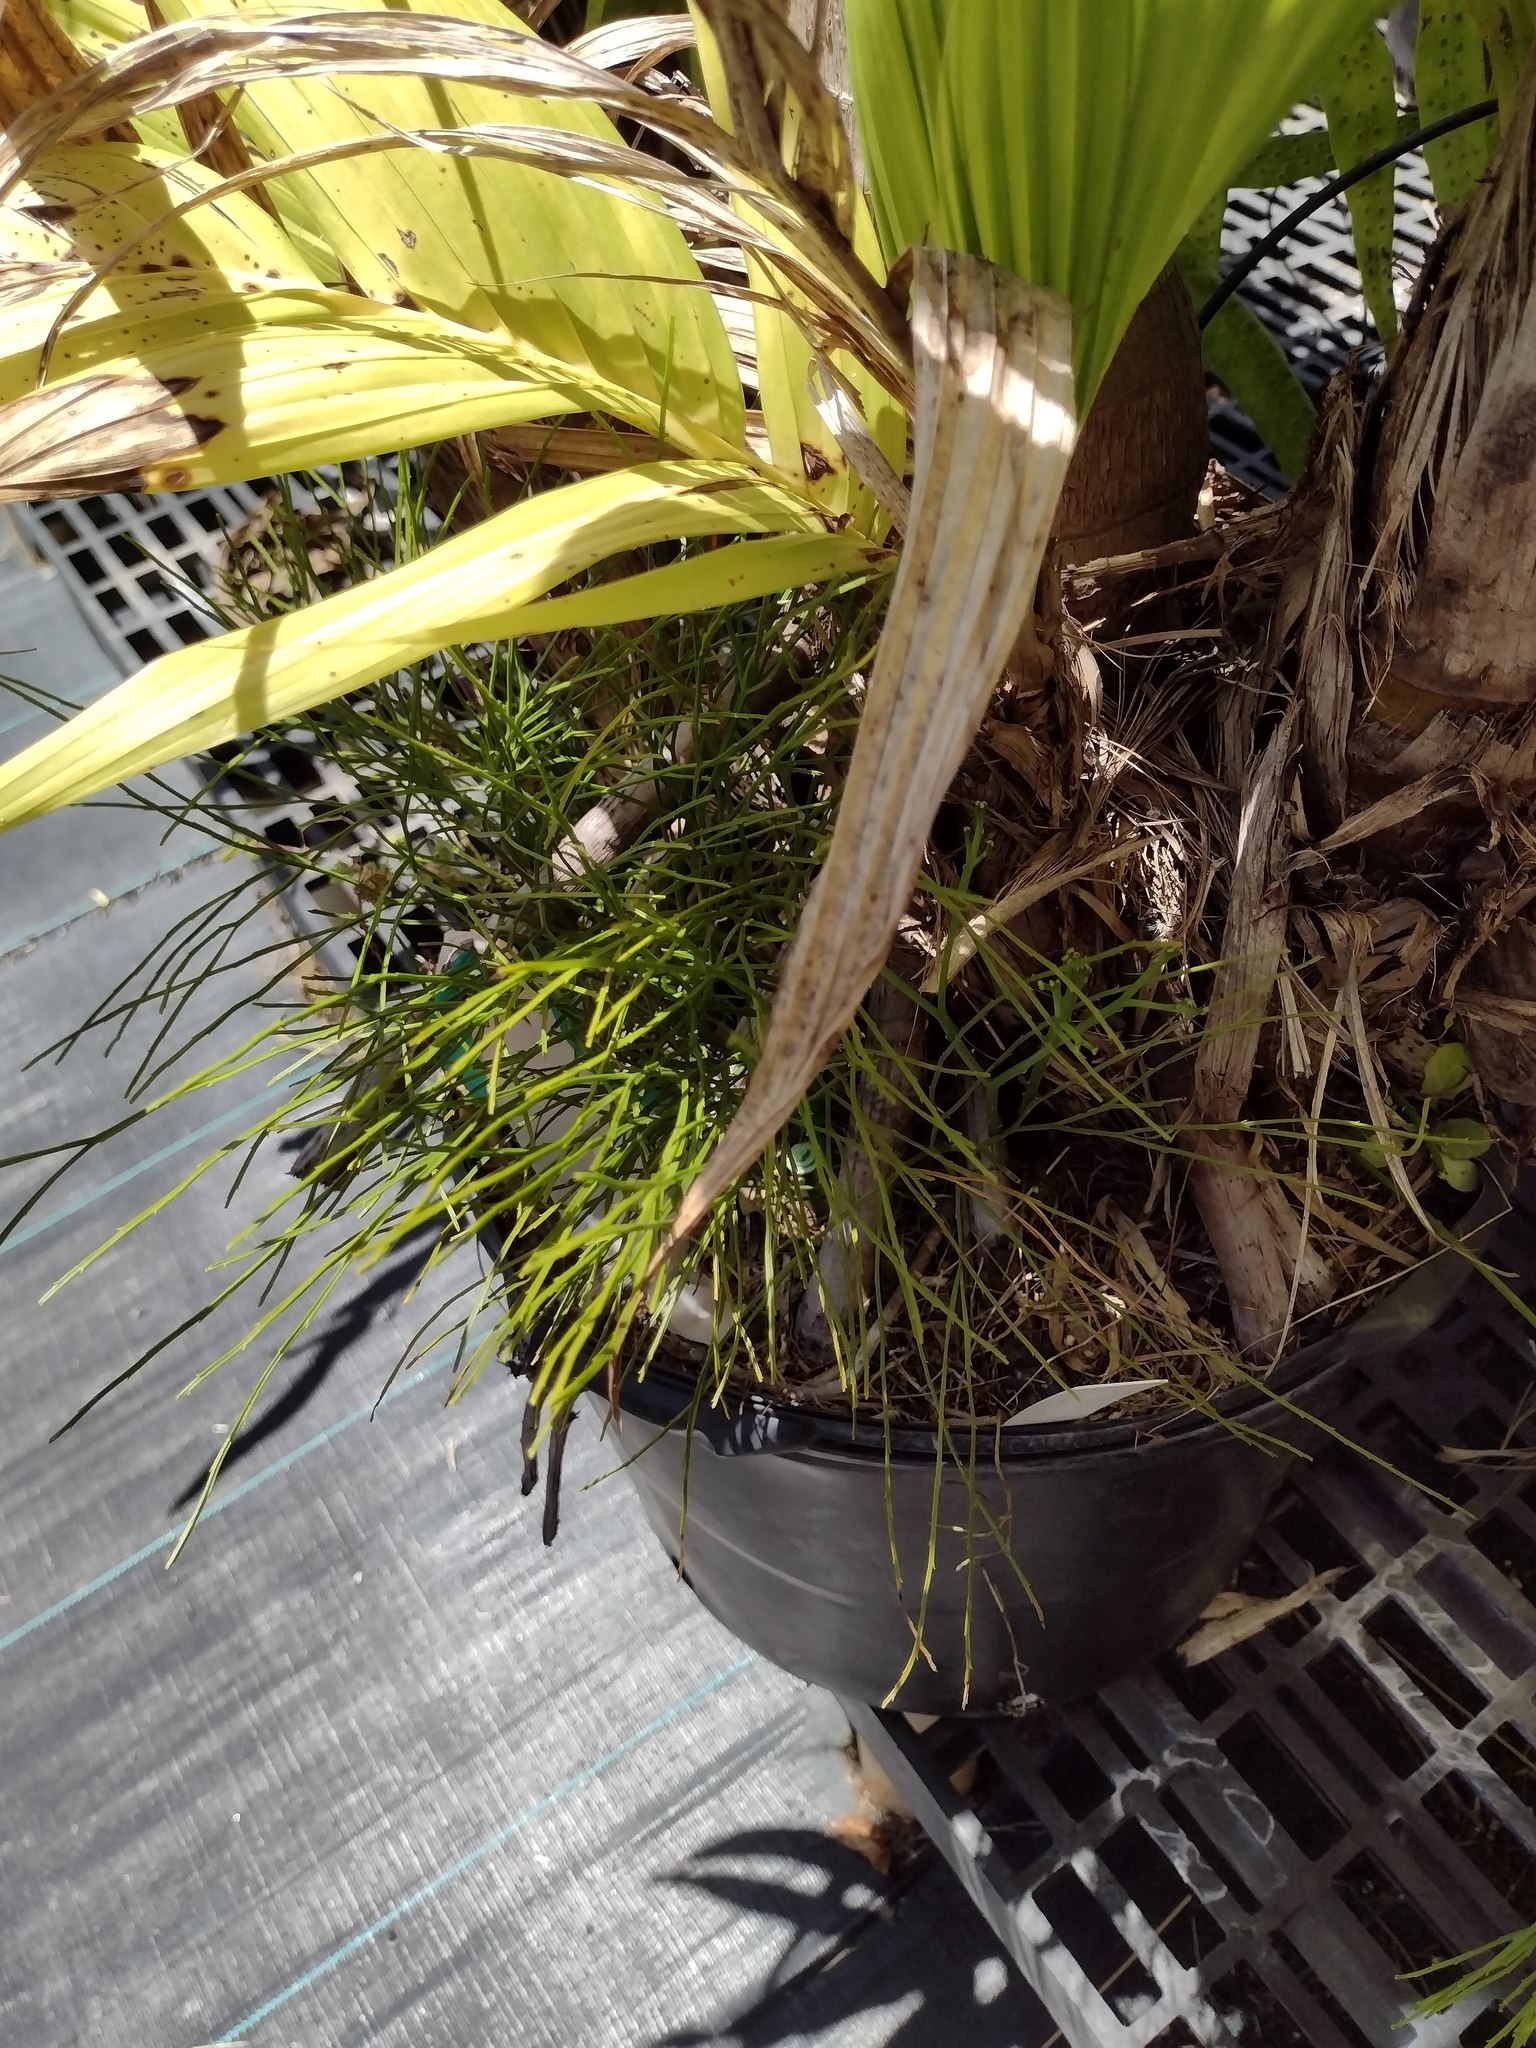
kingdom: Plantae
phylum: Tracheophyta
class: Polypodiopsida
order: Psilotales
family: Psilotaceae
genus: Psilotum
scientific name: Psilotum nudum
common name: Skeleton fork fern
